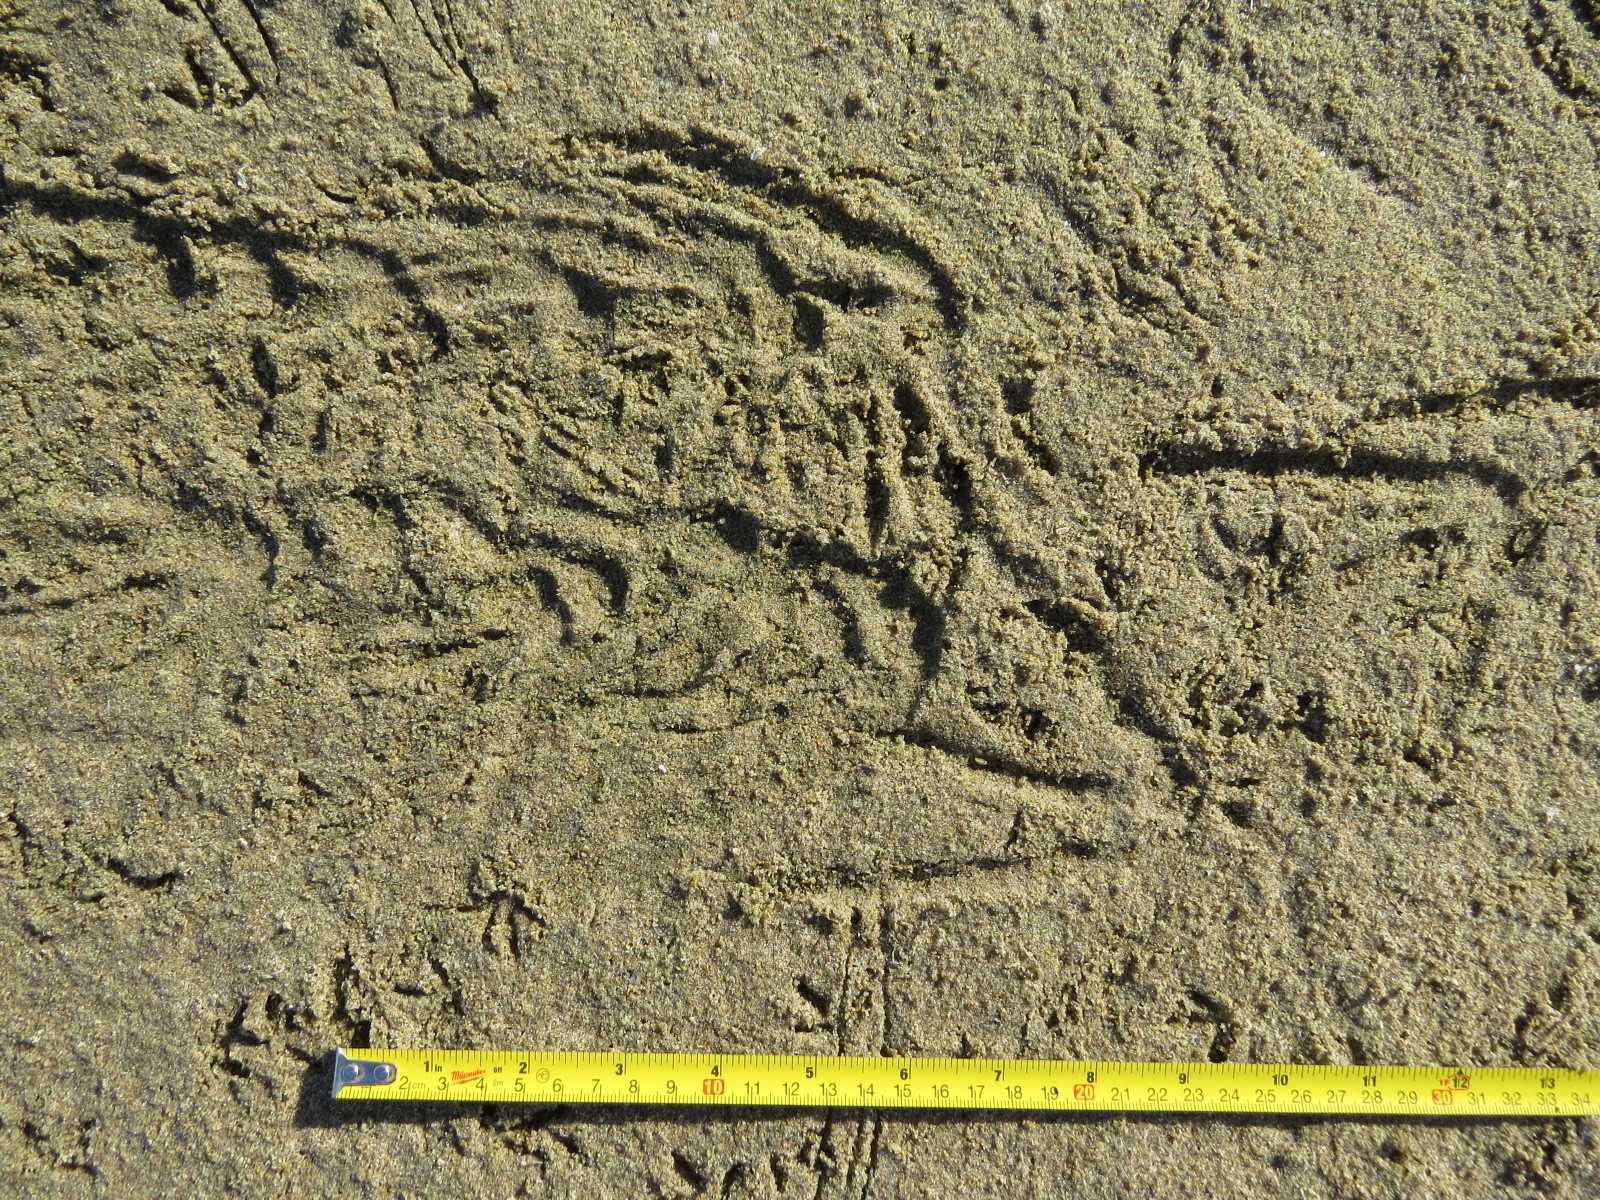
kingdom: Animalia
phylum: Chordata
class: Aves
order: Suliformes
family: Phalacrocoracidae
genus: Phalacrocorax
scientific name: Phalacrocorax auritus
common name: Double-crested cormorant
